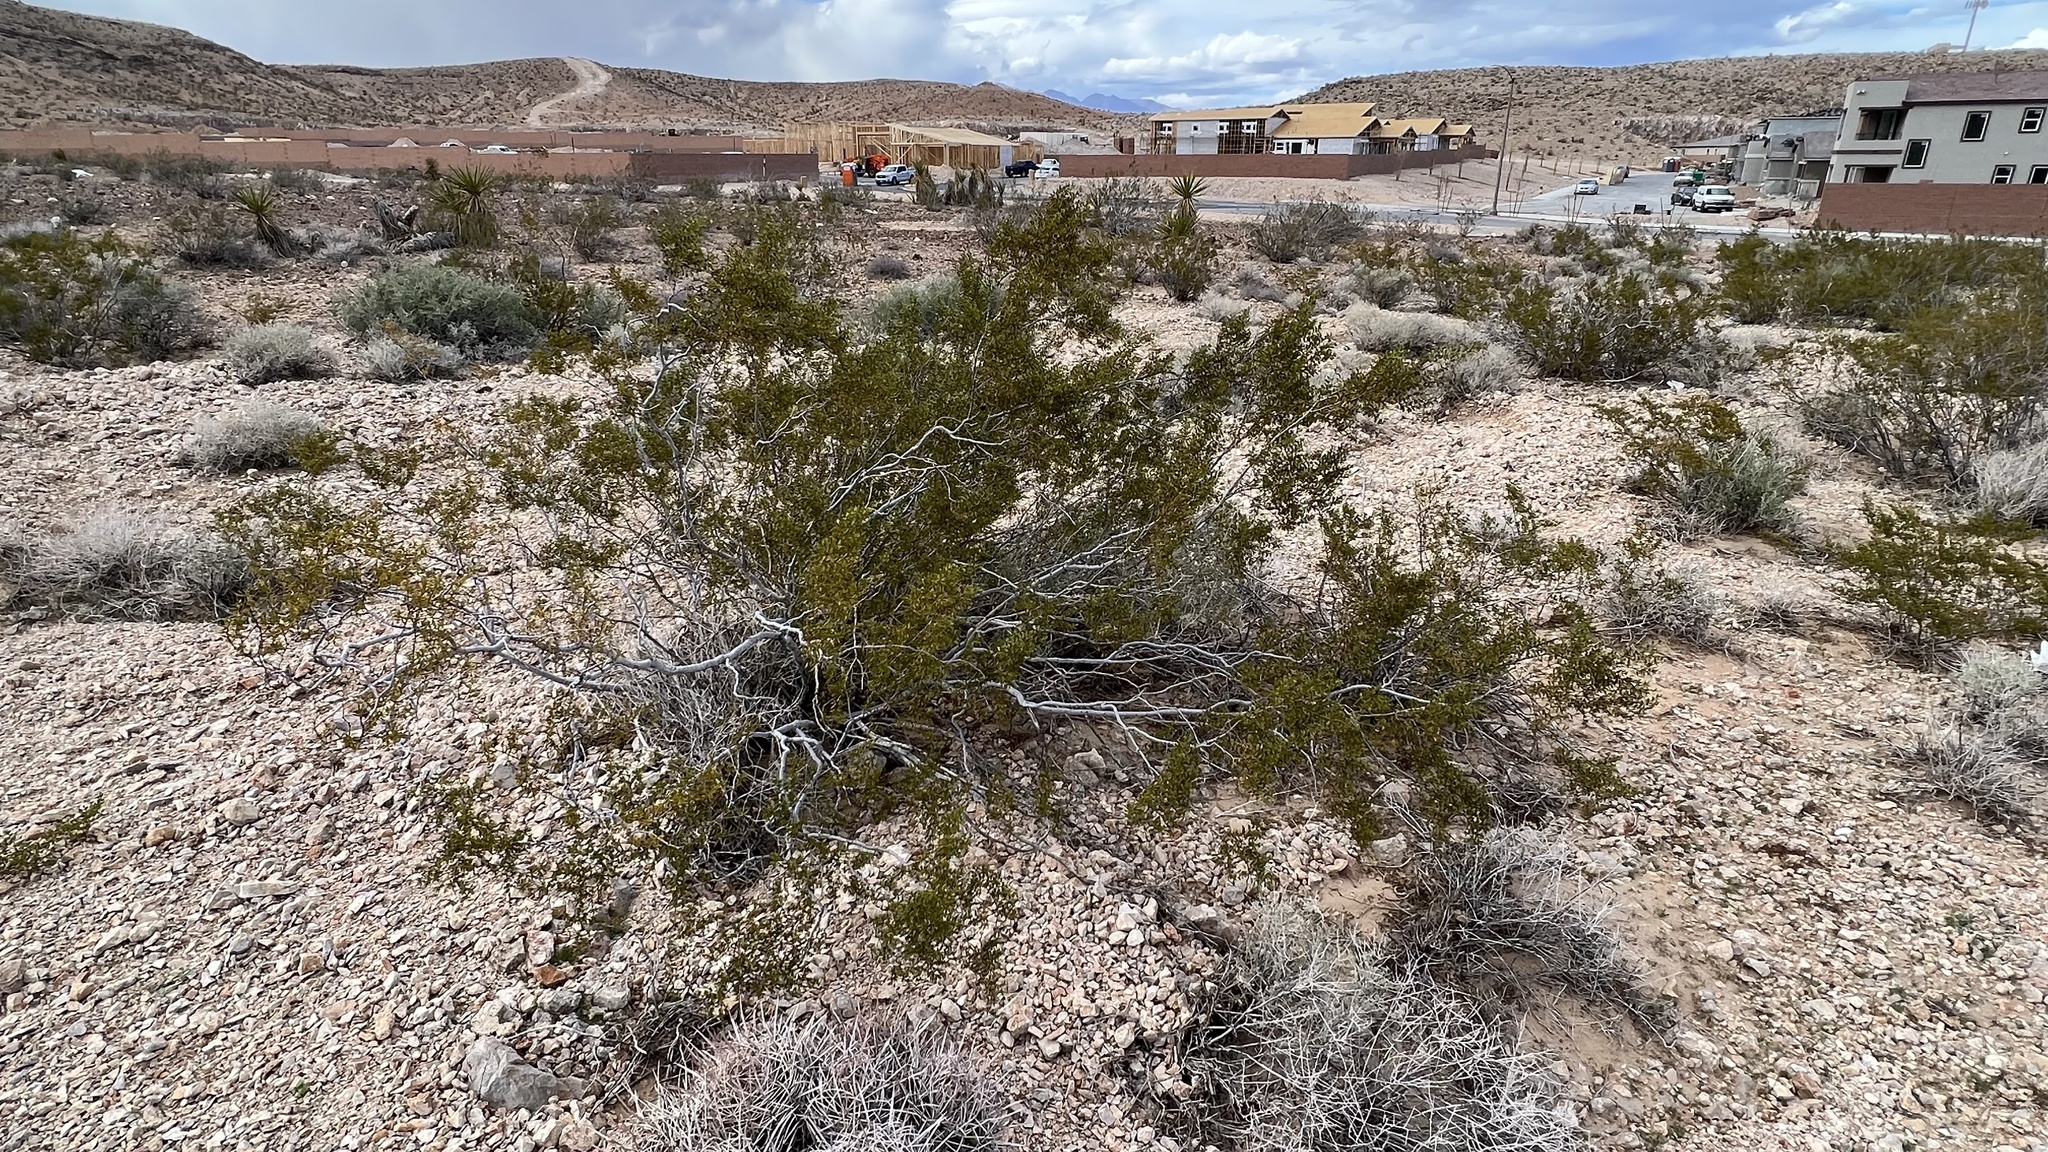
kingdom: Plantae
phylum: Tracheophyta
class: Magnoliopsida
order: Zygophyllales
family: Zygophyllaceae
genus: Larrea
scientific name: Larrea tridentata
